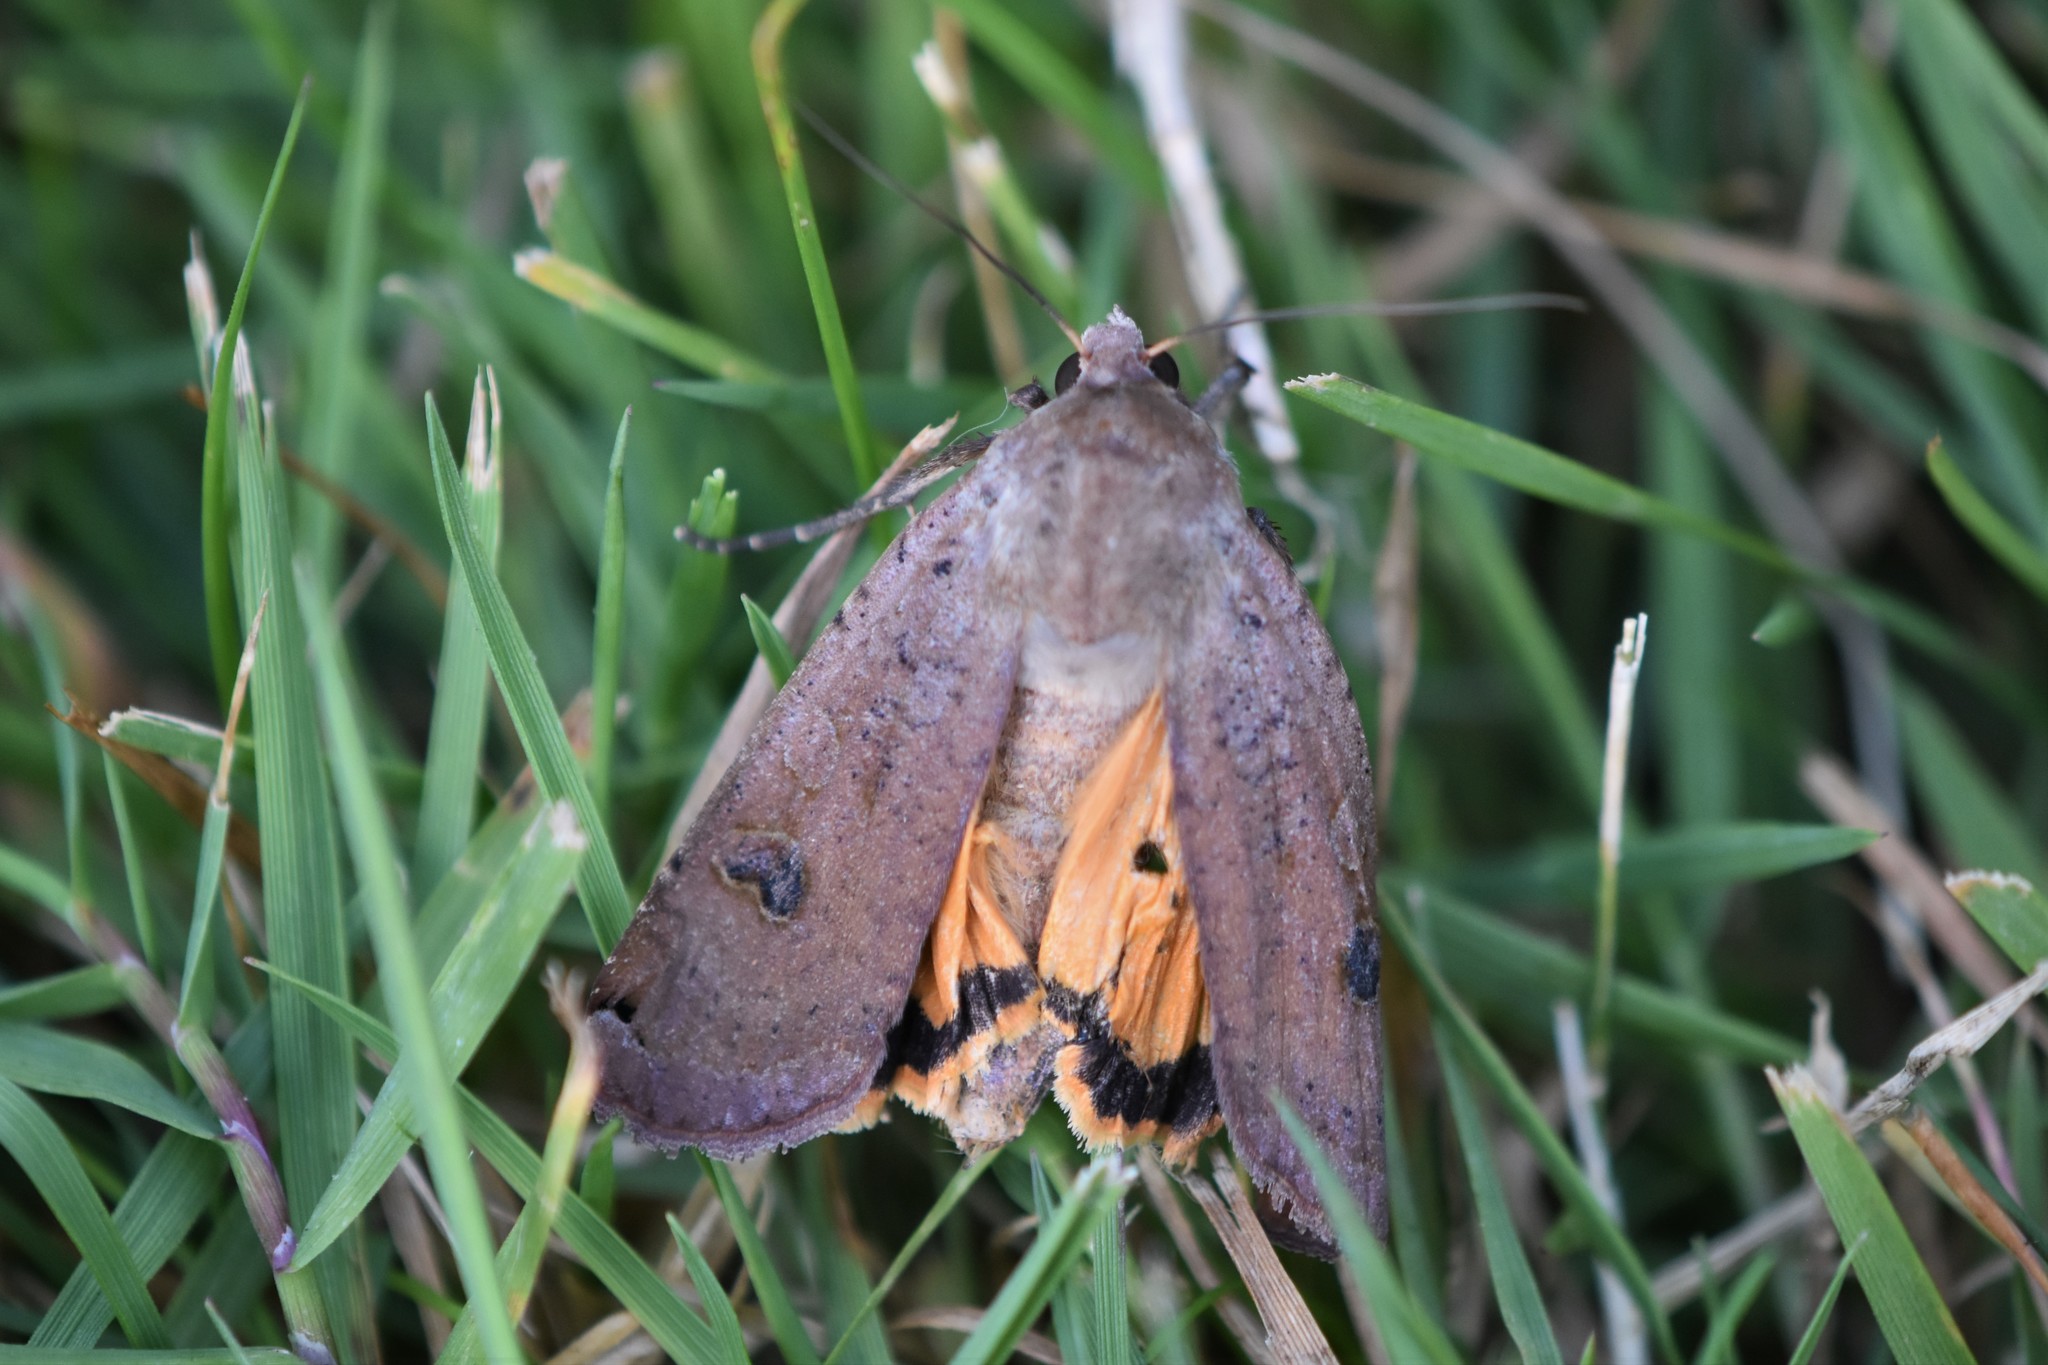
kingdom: Animalia
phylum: Arthropoda
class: Insecta
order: Lepidoptera
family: Noctuidae
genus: Noctua
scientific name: Noctua pronuba
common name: Large yellow underwing
